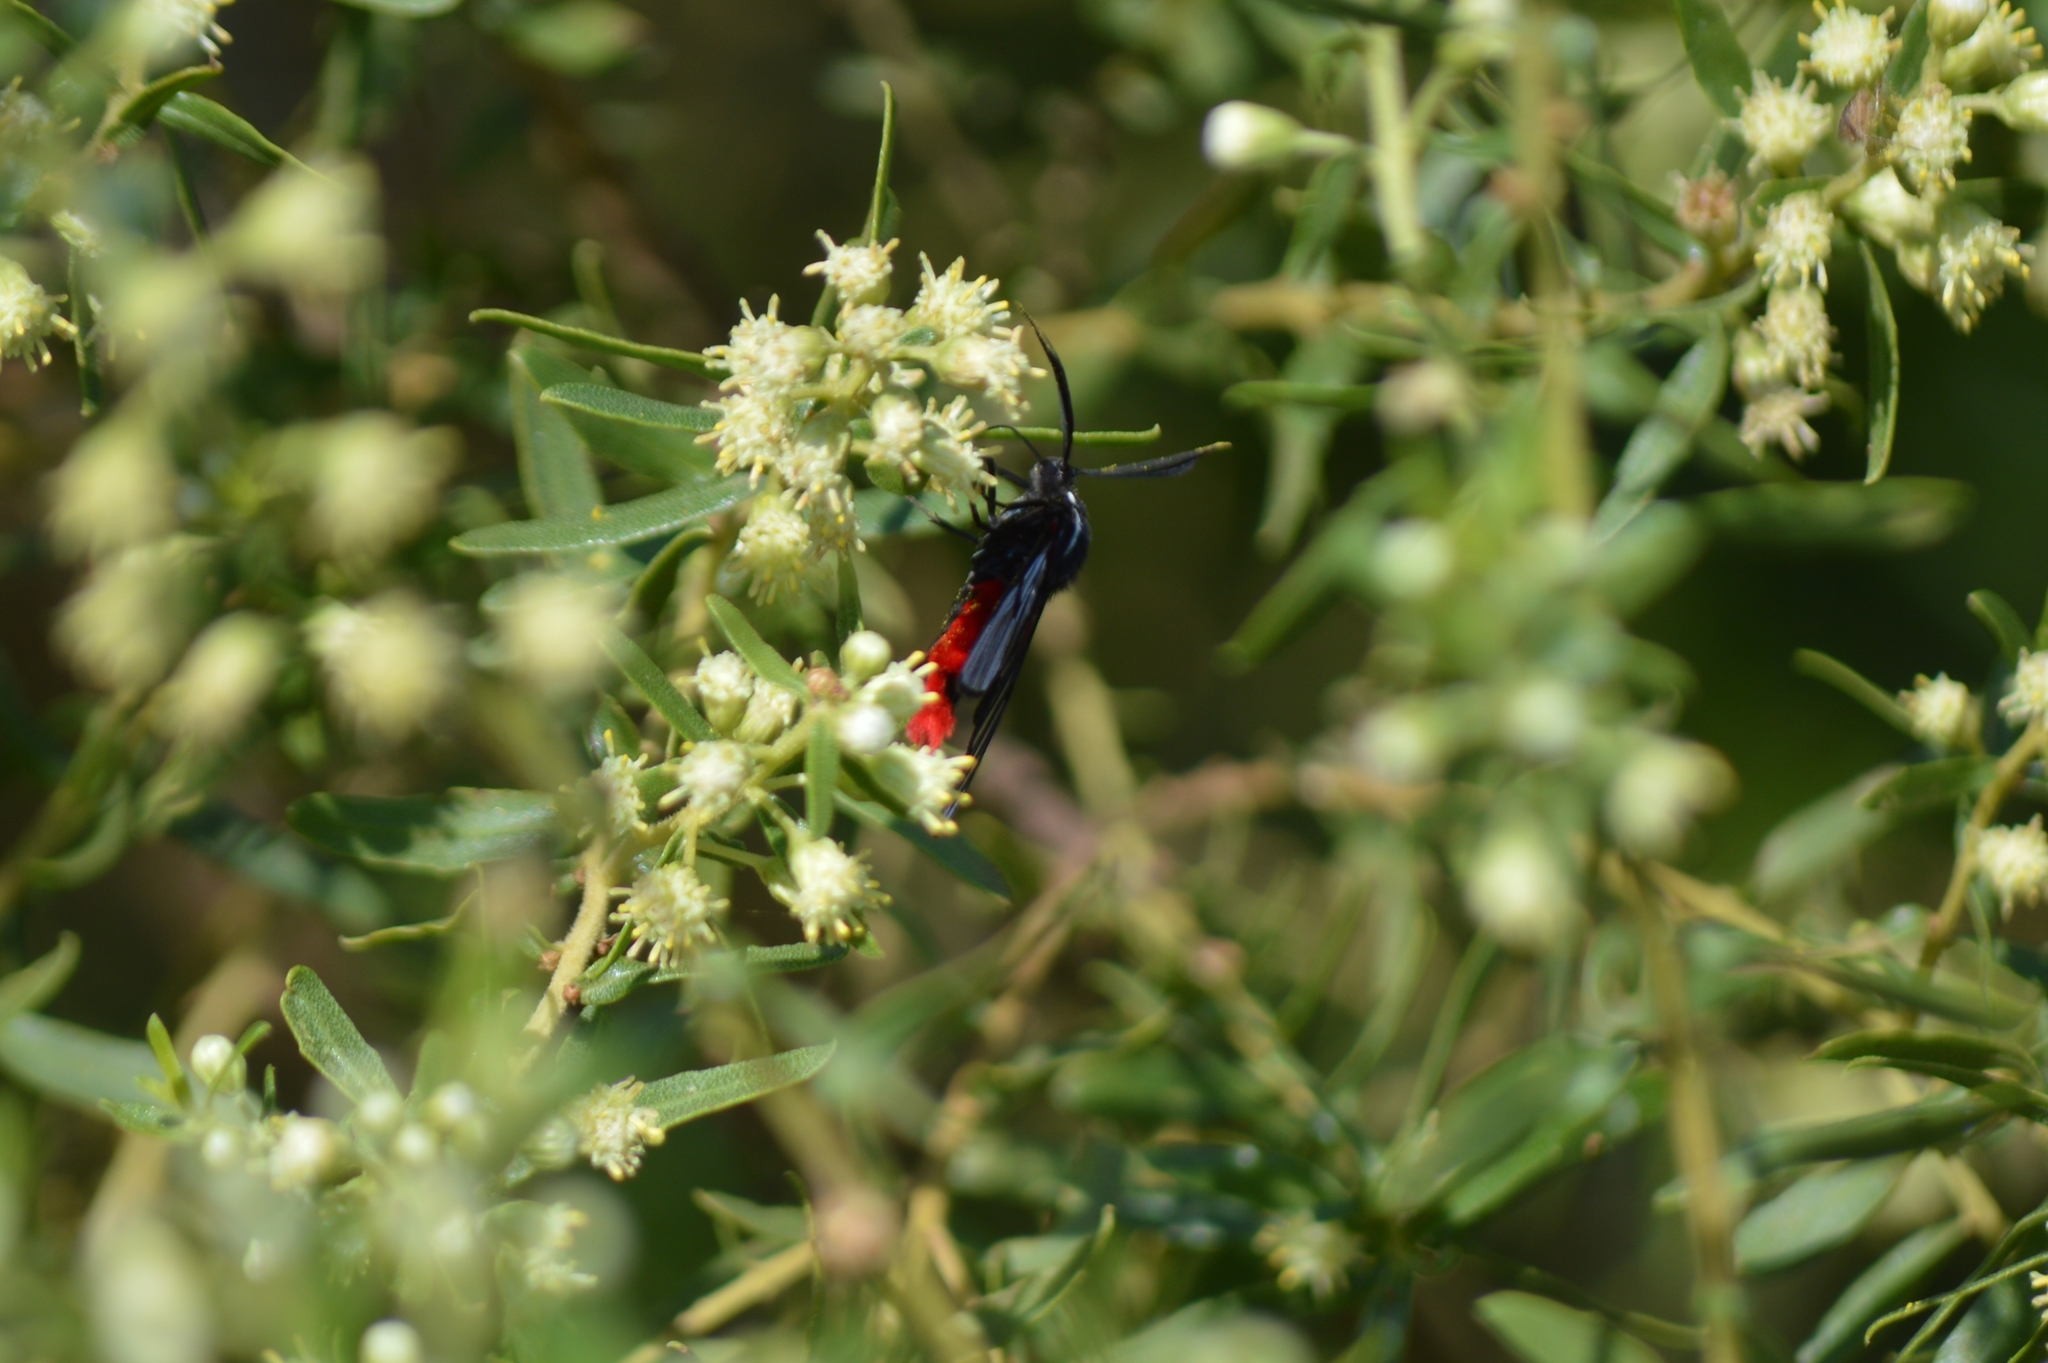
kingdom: Animalia
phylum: Arthropoda
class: Insecta
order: Lepidoptera
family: Erebidae
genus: Dinia
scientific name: Dinia eagrus
